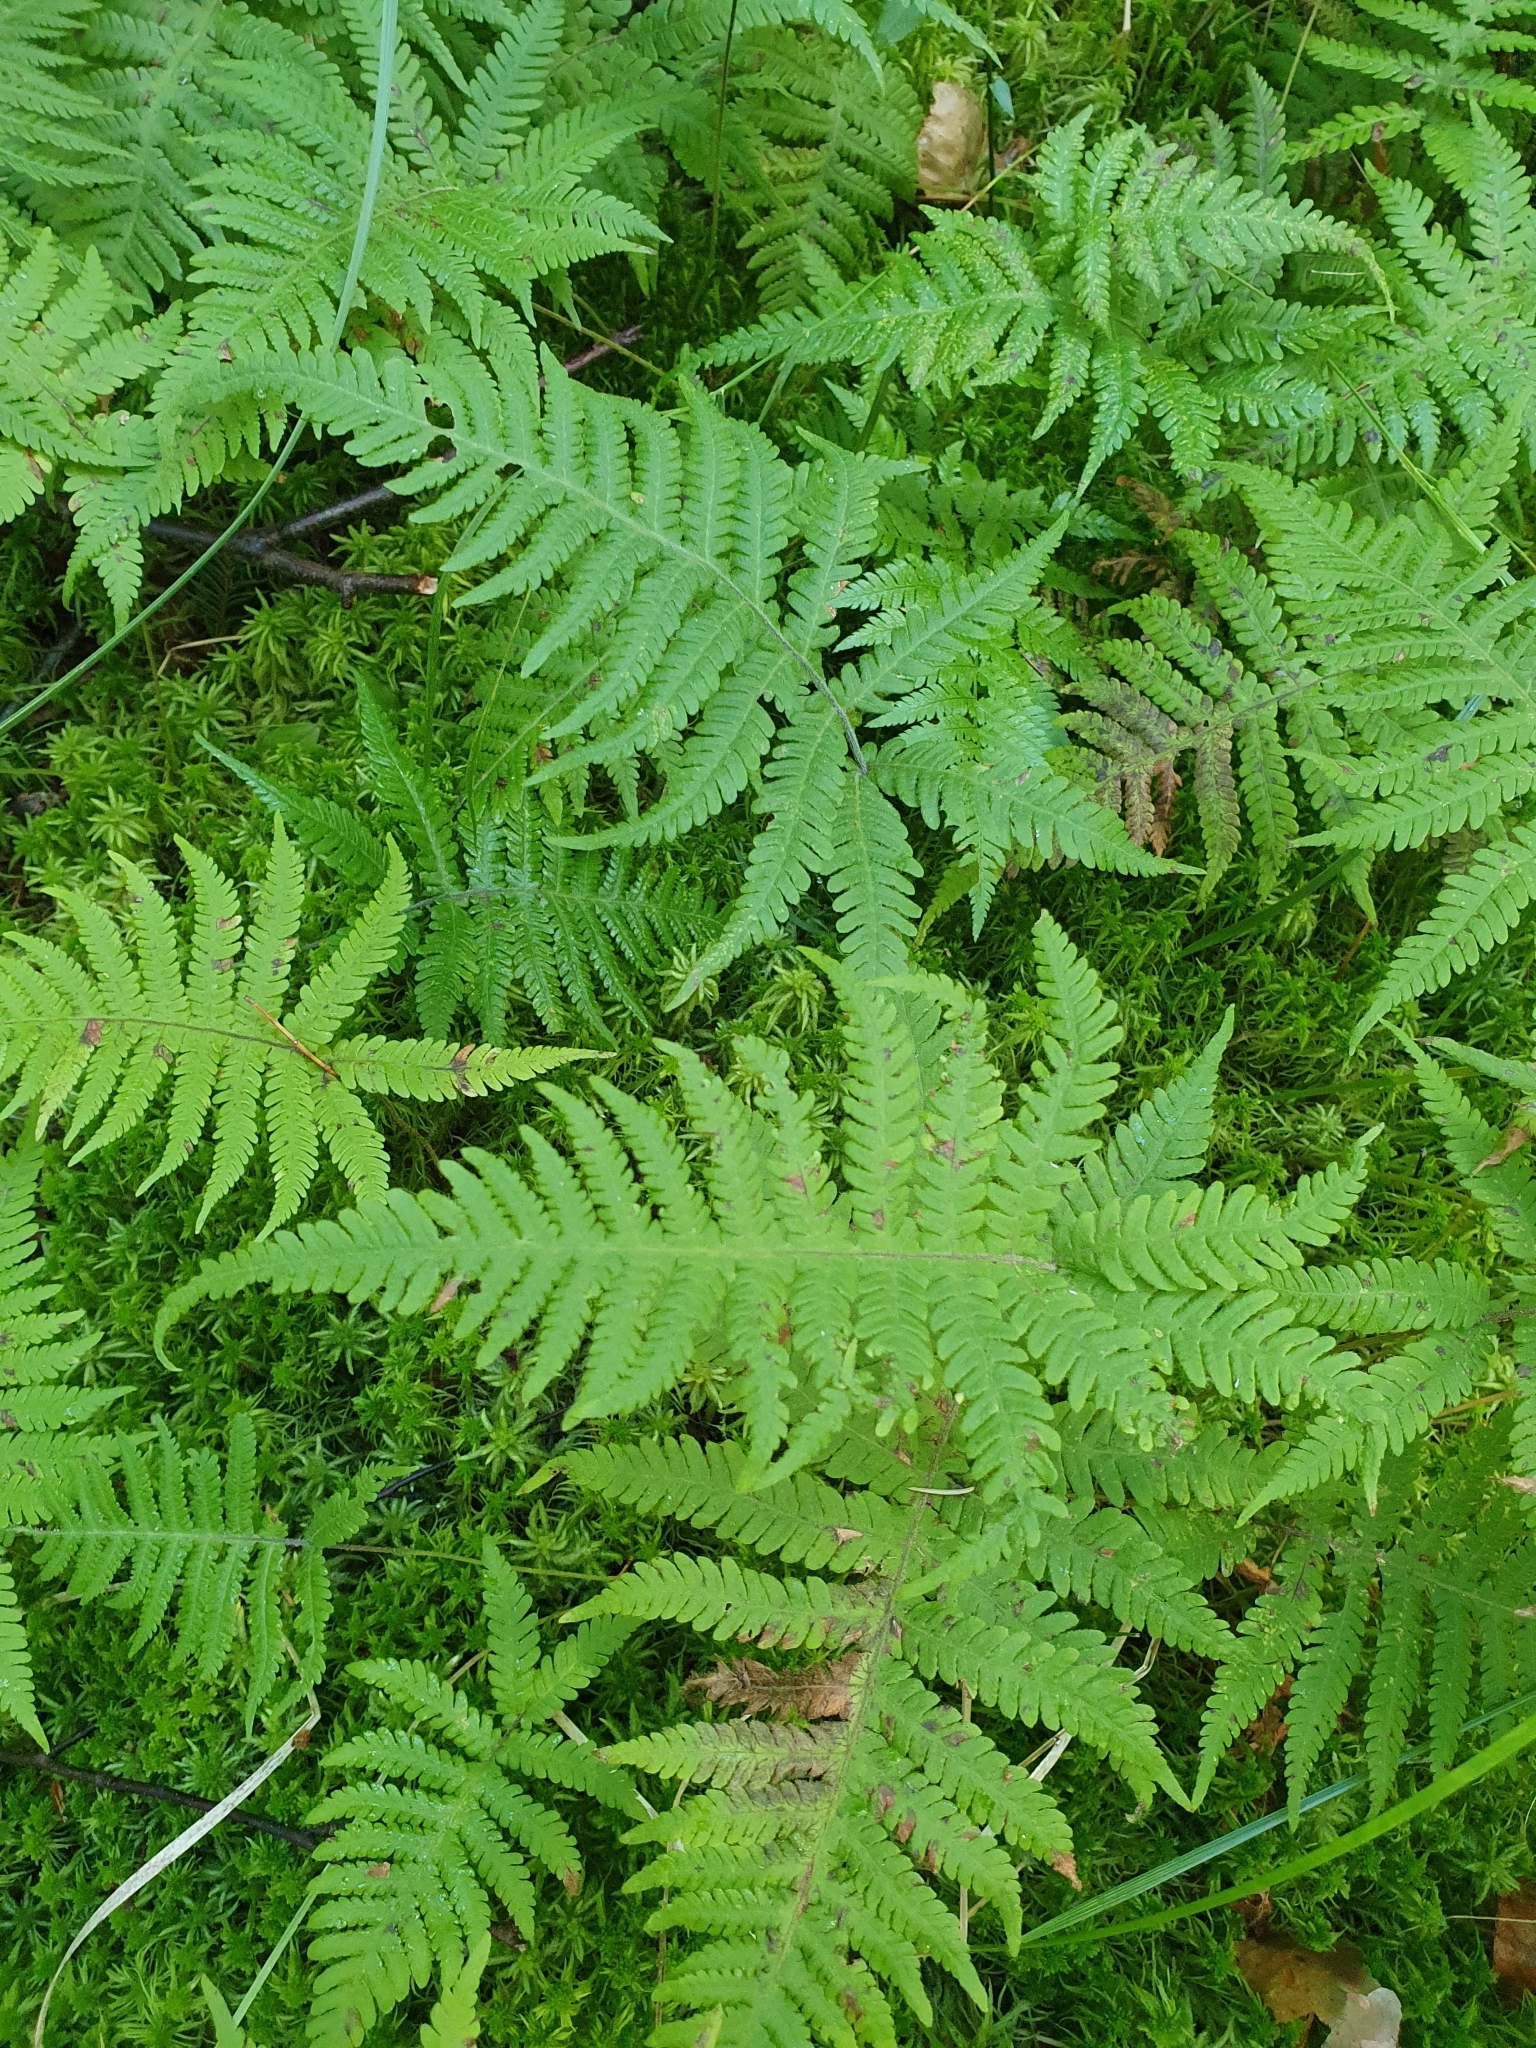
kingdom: Plantae
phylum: Tracheophyta
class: Polypodiopsida
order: Polypodiales
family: Thelypteridaceae
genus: Phegopteris
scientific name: Phegopteris connectilis
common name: Beech fern
